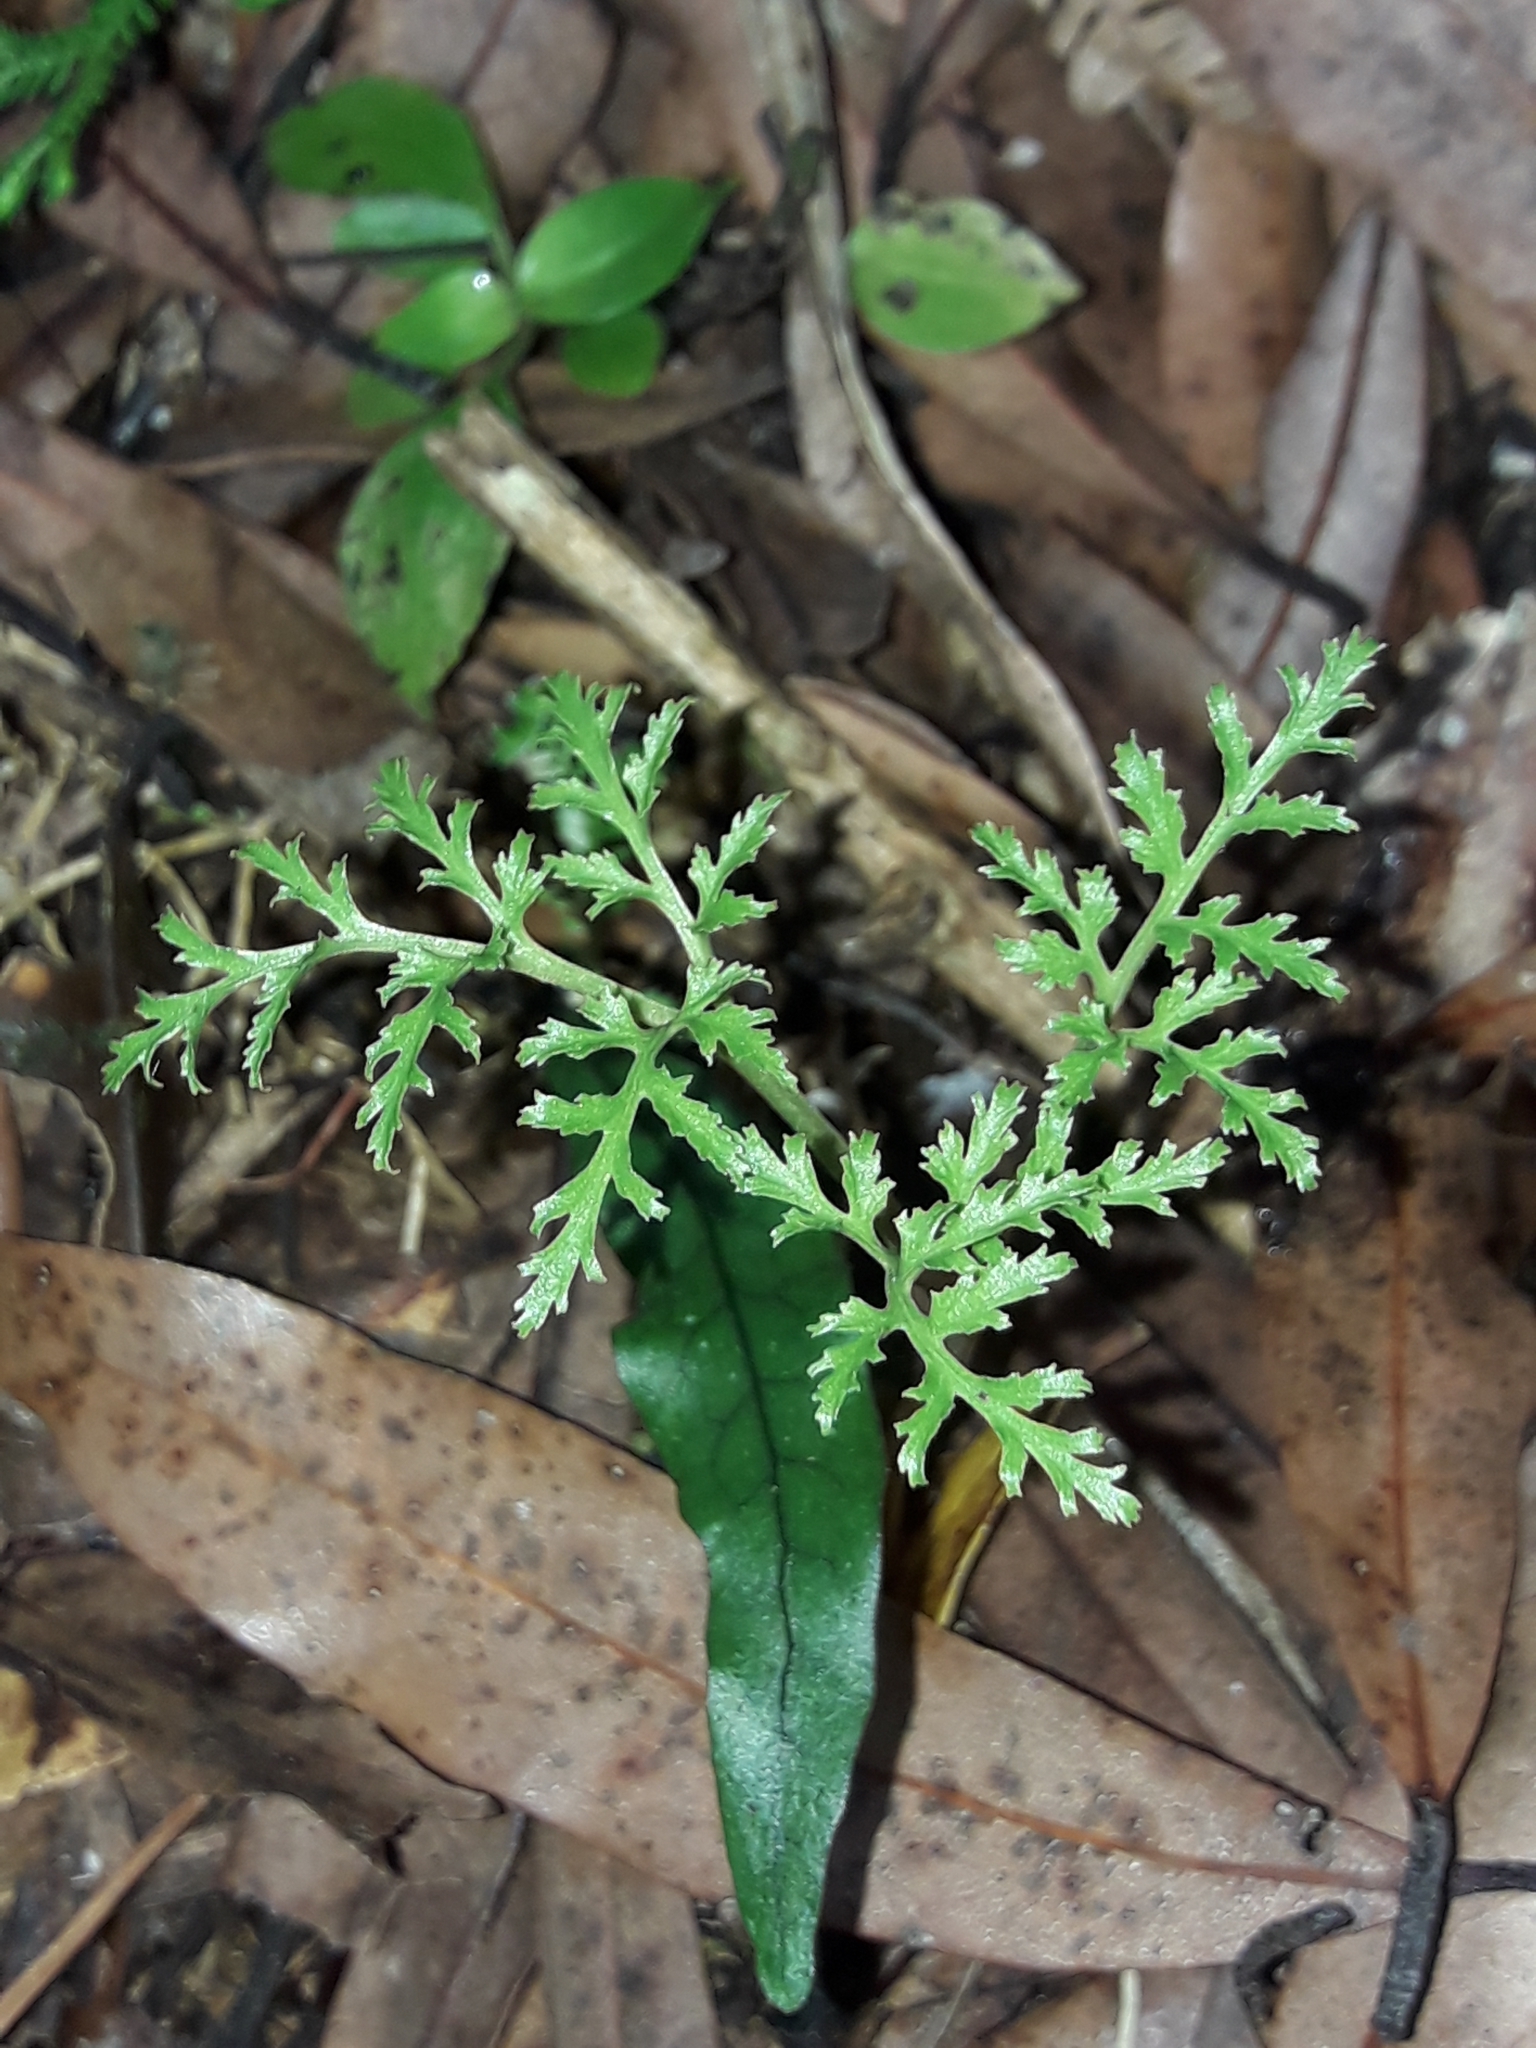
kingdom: Plantae
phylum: Tracheophyta
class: Polypodiopsida
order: Ophioglossales
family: Ophioglossaceae
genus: Sceptridium
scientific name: Sceptridium biforme
